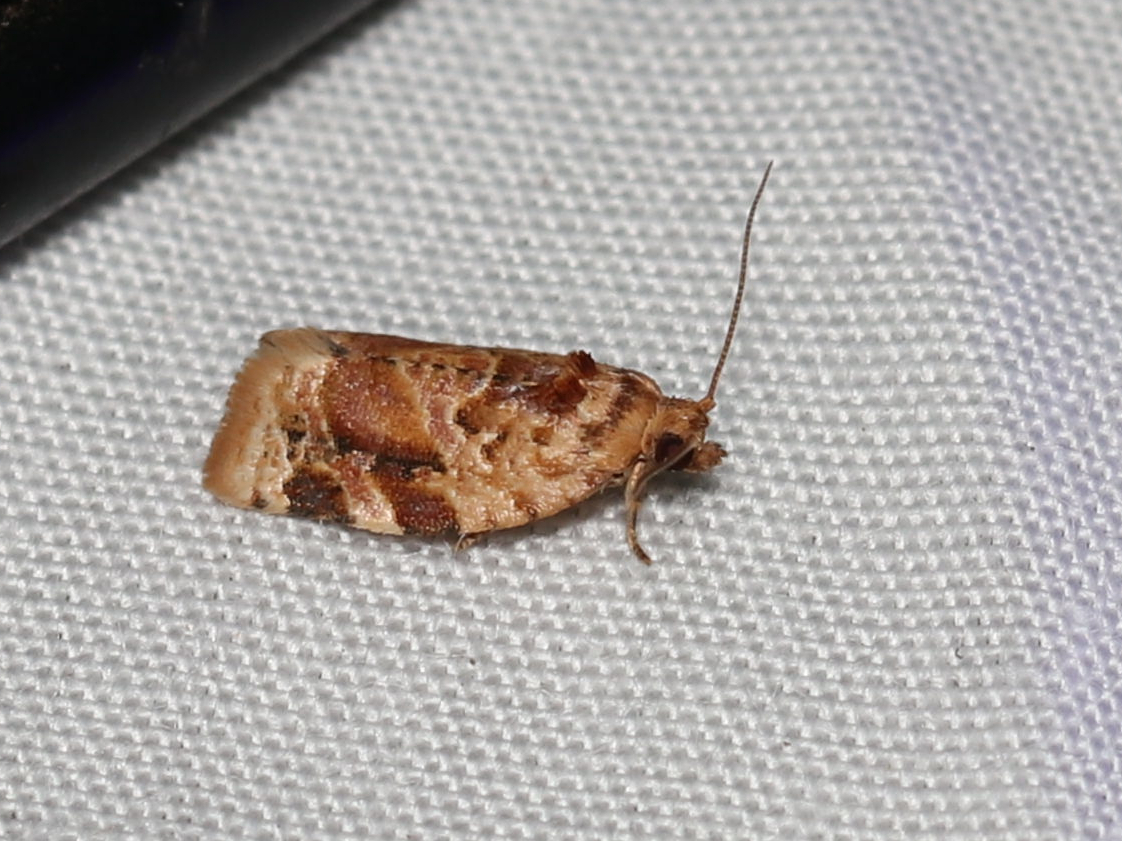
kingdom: Animalia
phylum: Arthropoda
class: Insecta
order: Lepidoptera
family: Tortricidae
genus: Argyrotaenia
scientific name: Argyrotaenia velutinana
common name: Red-banded leafroller moth
